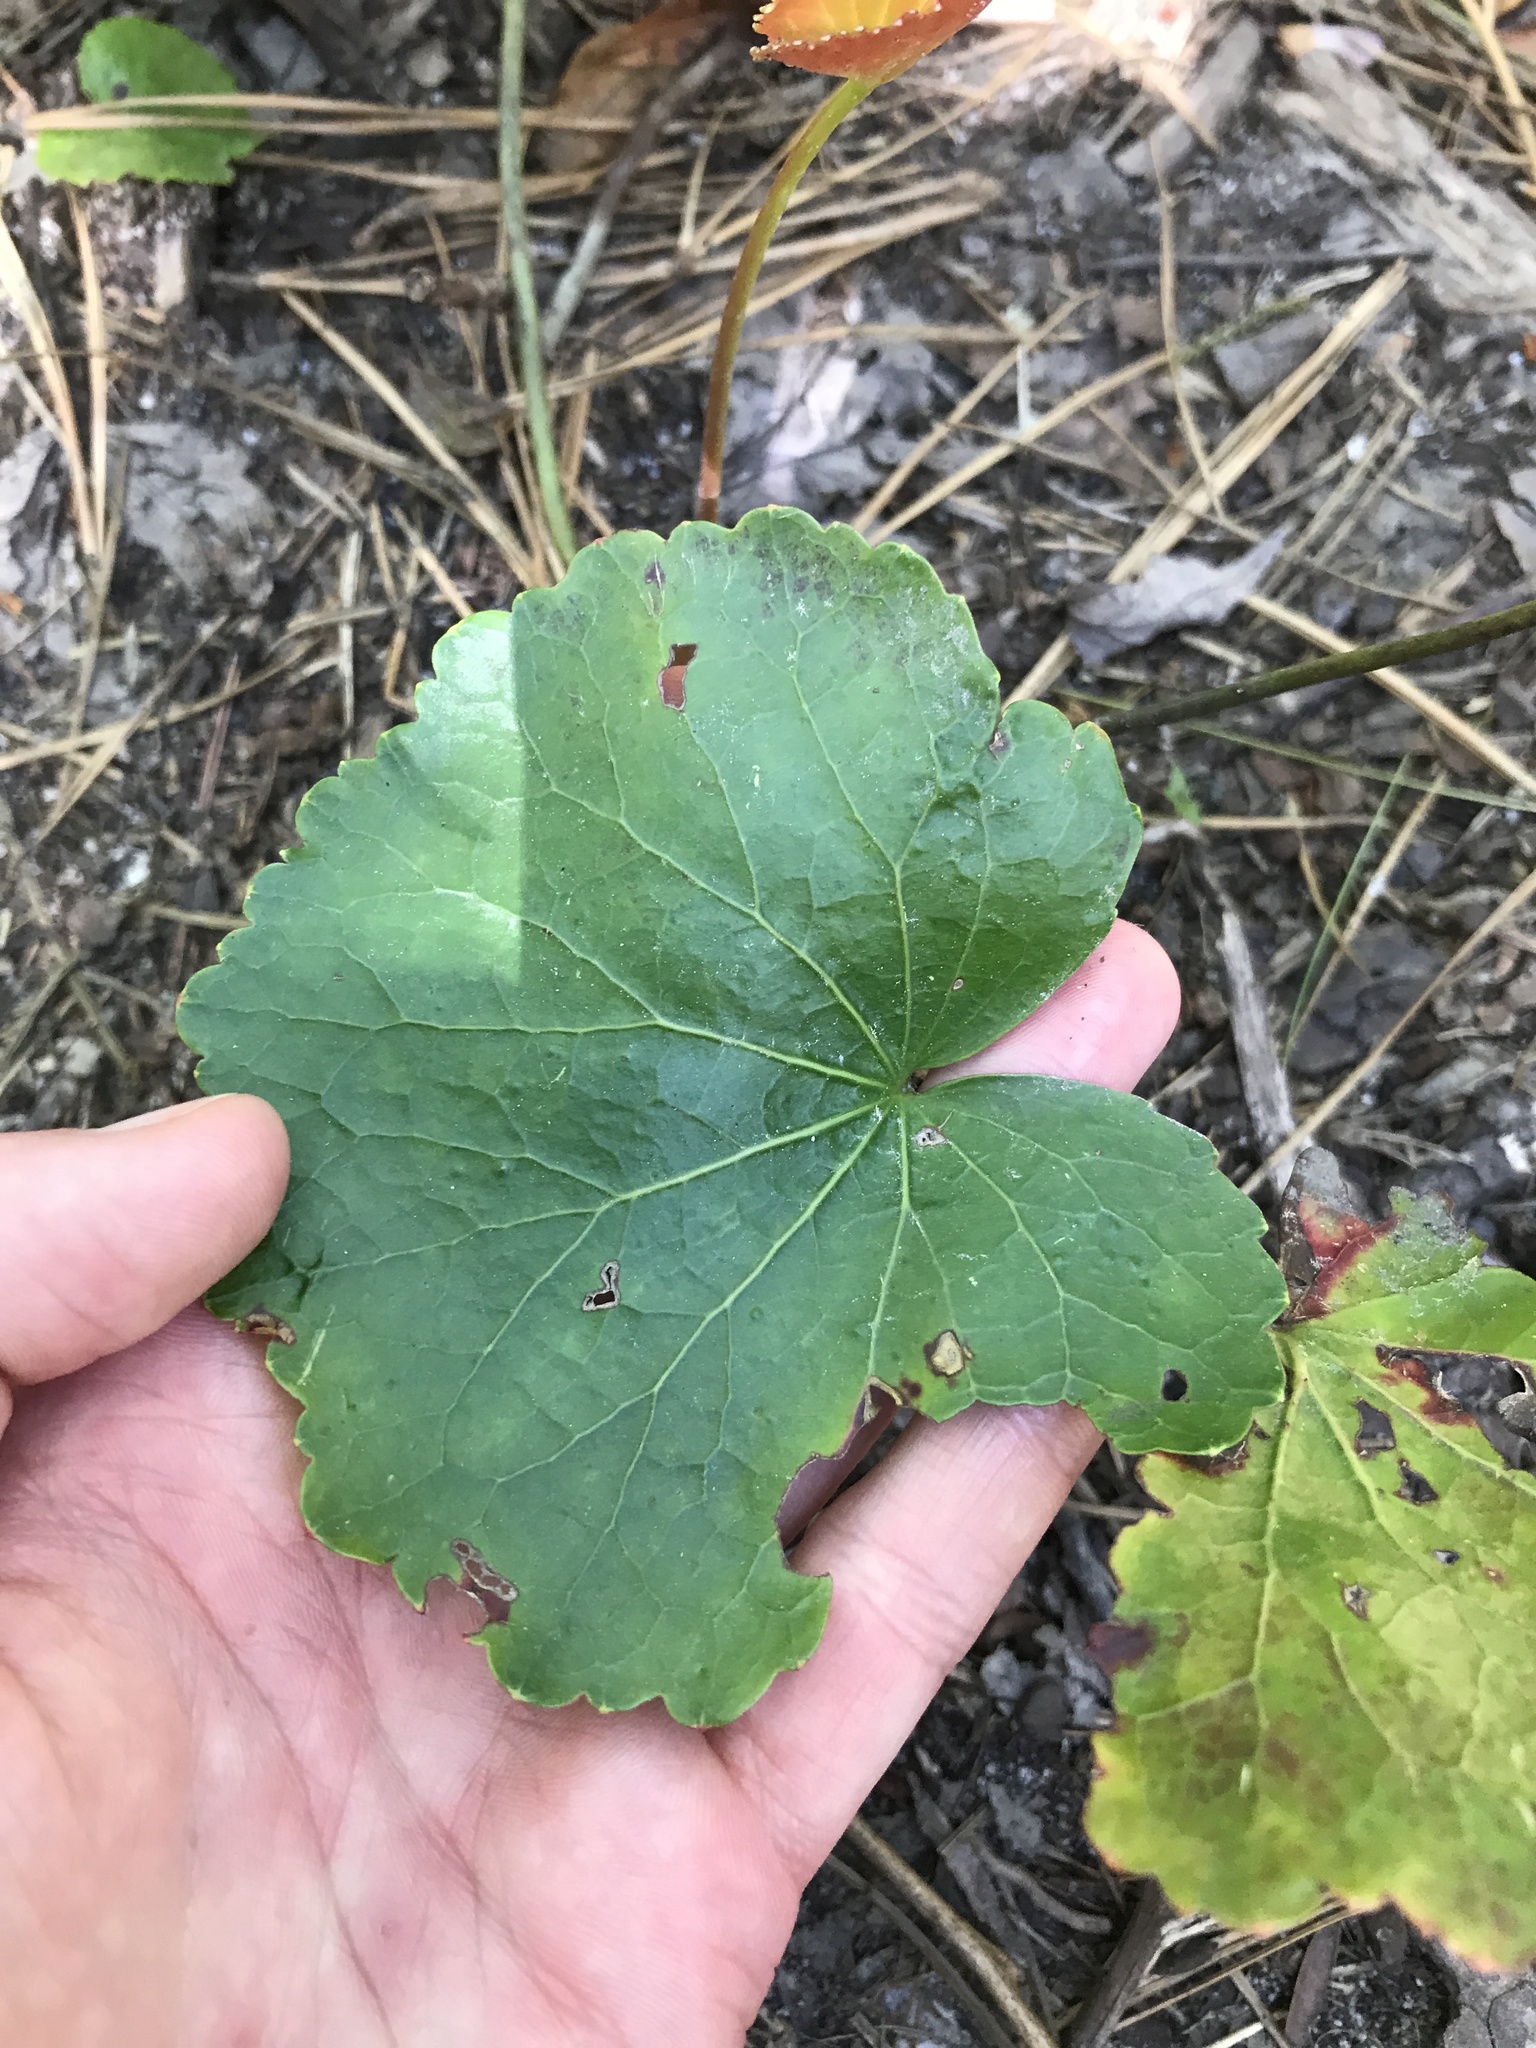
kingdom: Plantae
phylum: Tracheophyta
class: Magnoliopsida
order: Ericales
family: Diapensiaceae
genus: Galax
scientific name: Galax urceolata
